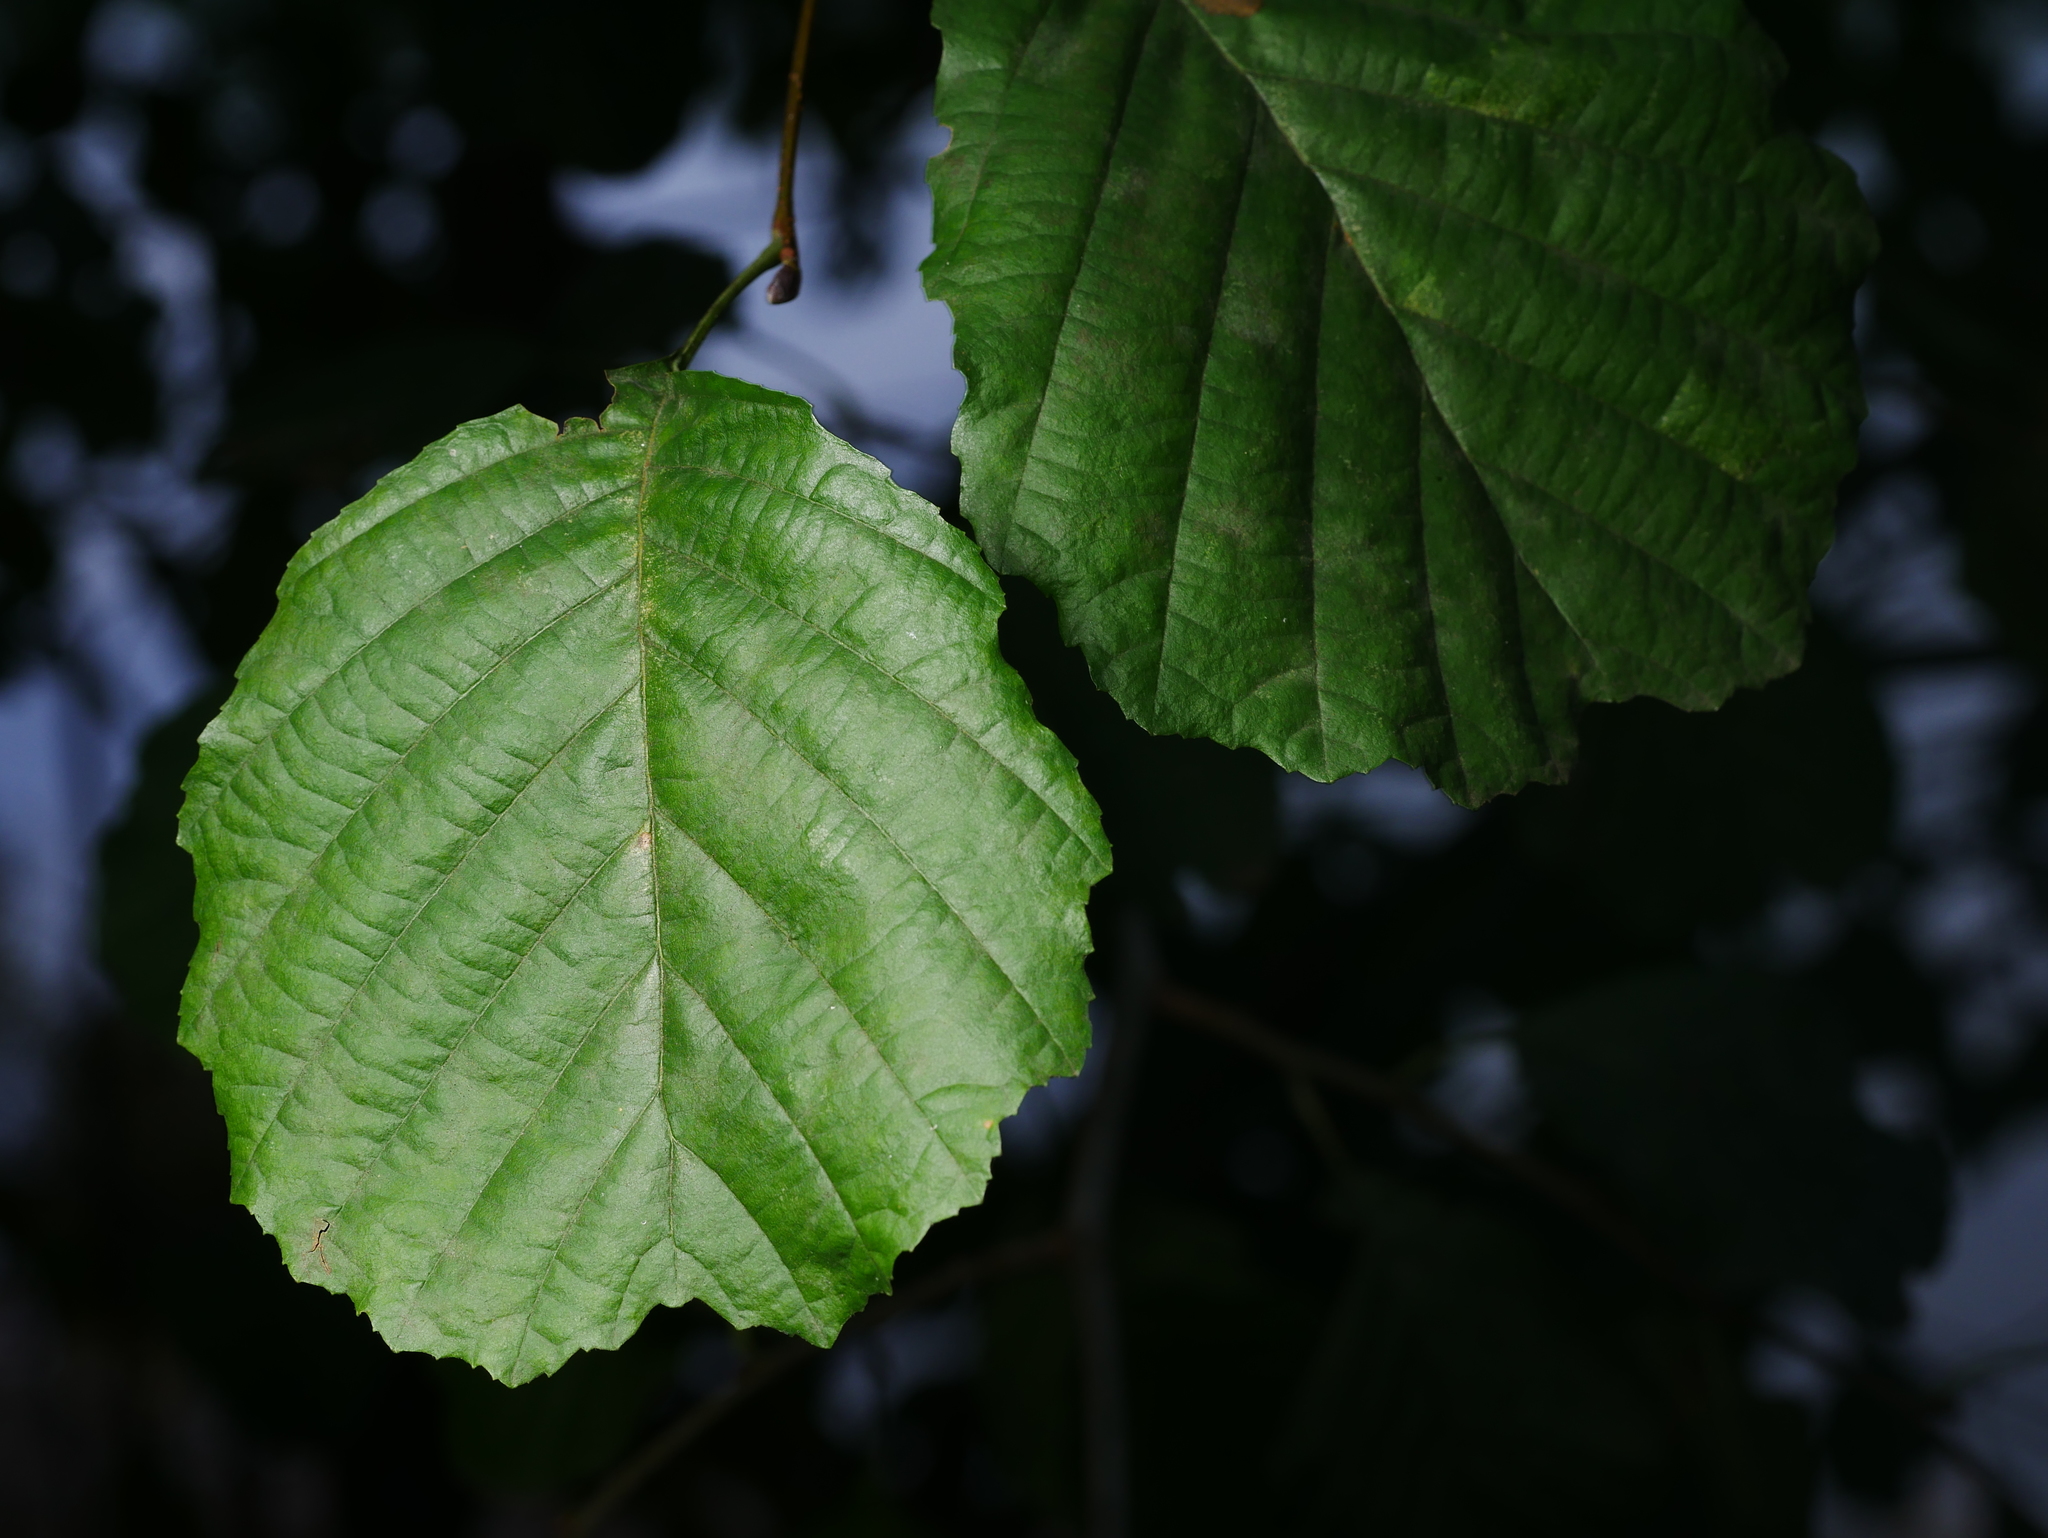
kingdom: Plantae
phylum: Tracheophyta
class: Magnoliopsida
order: Fagales
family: Betulaceae
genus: Alnus
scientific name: Alnus glutinosa
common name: Black alder
